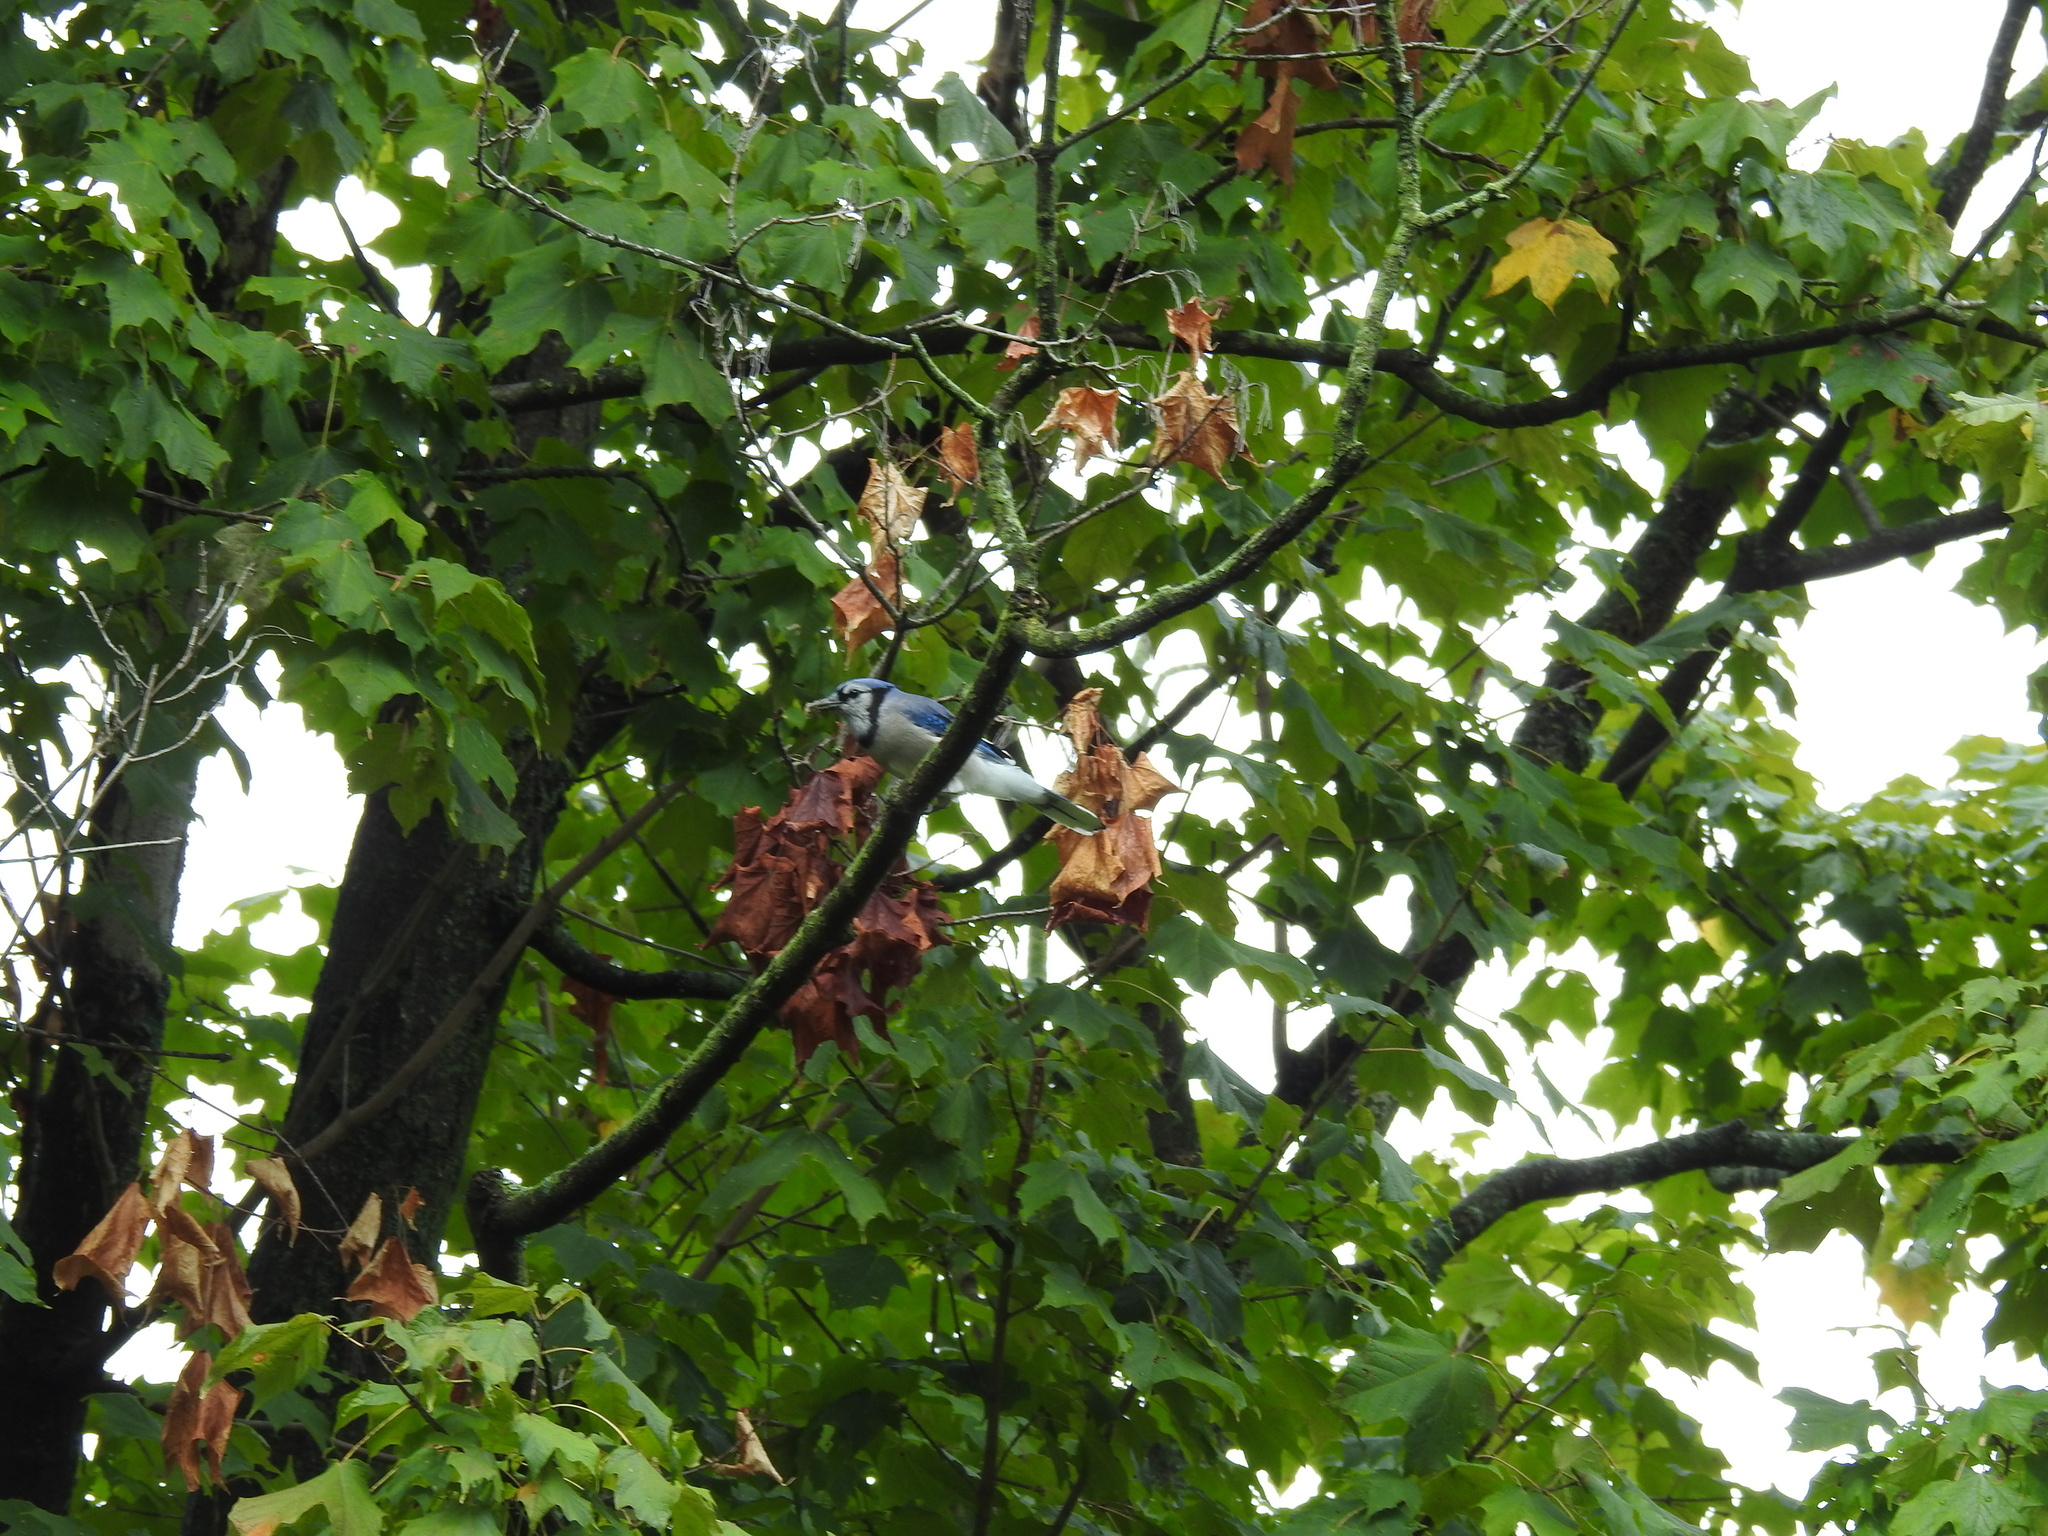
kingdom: Animalia
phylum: Chordata
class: Aves
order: Passeriformes
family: Corvidae
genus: Cyanocitta
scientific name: Cyanocitta cristata
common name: Blue jay
